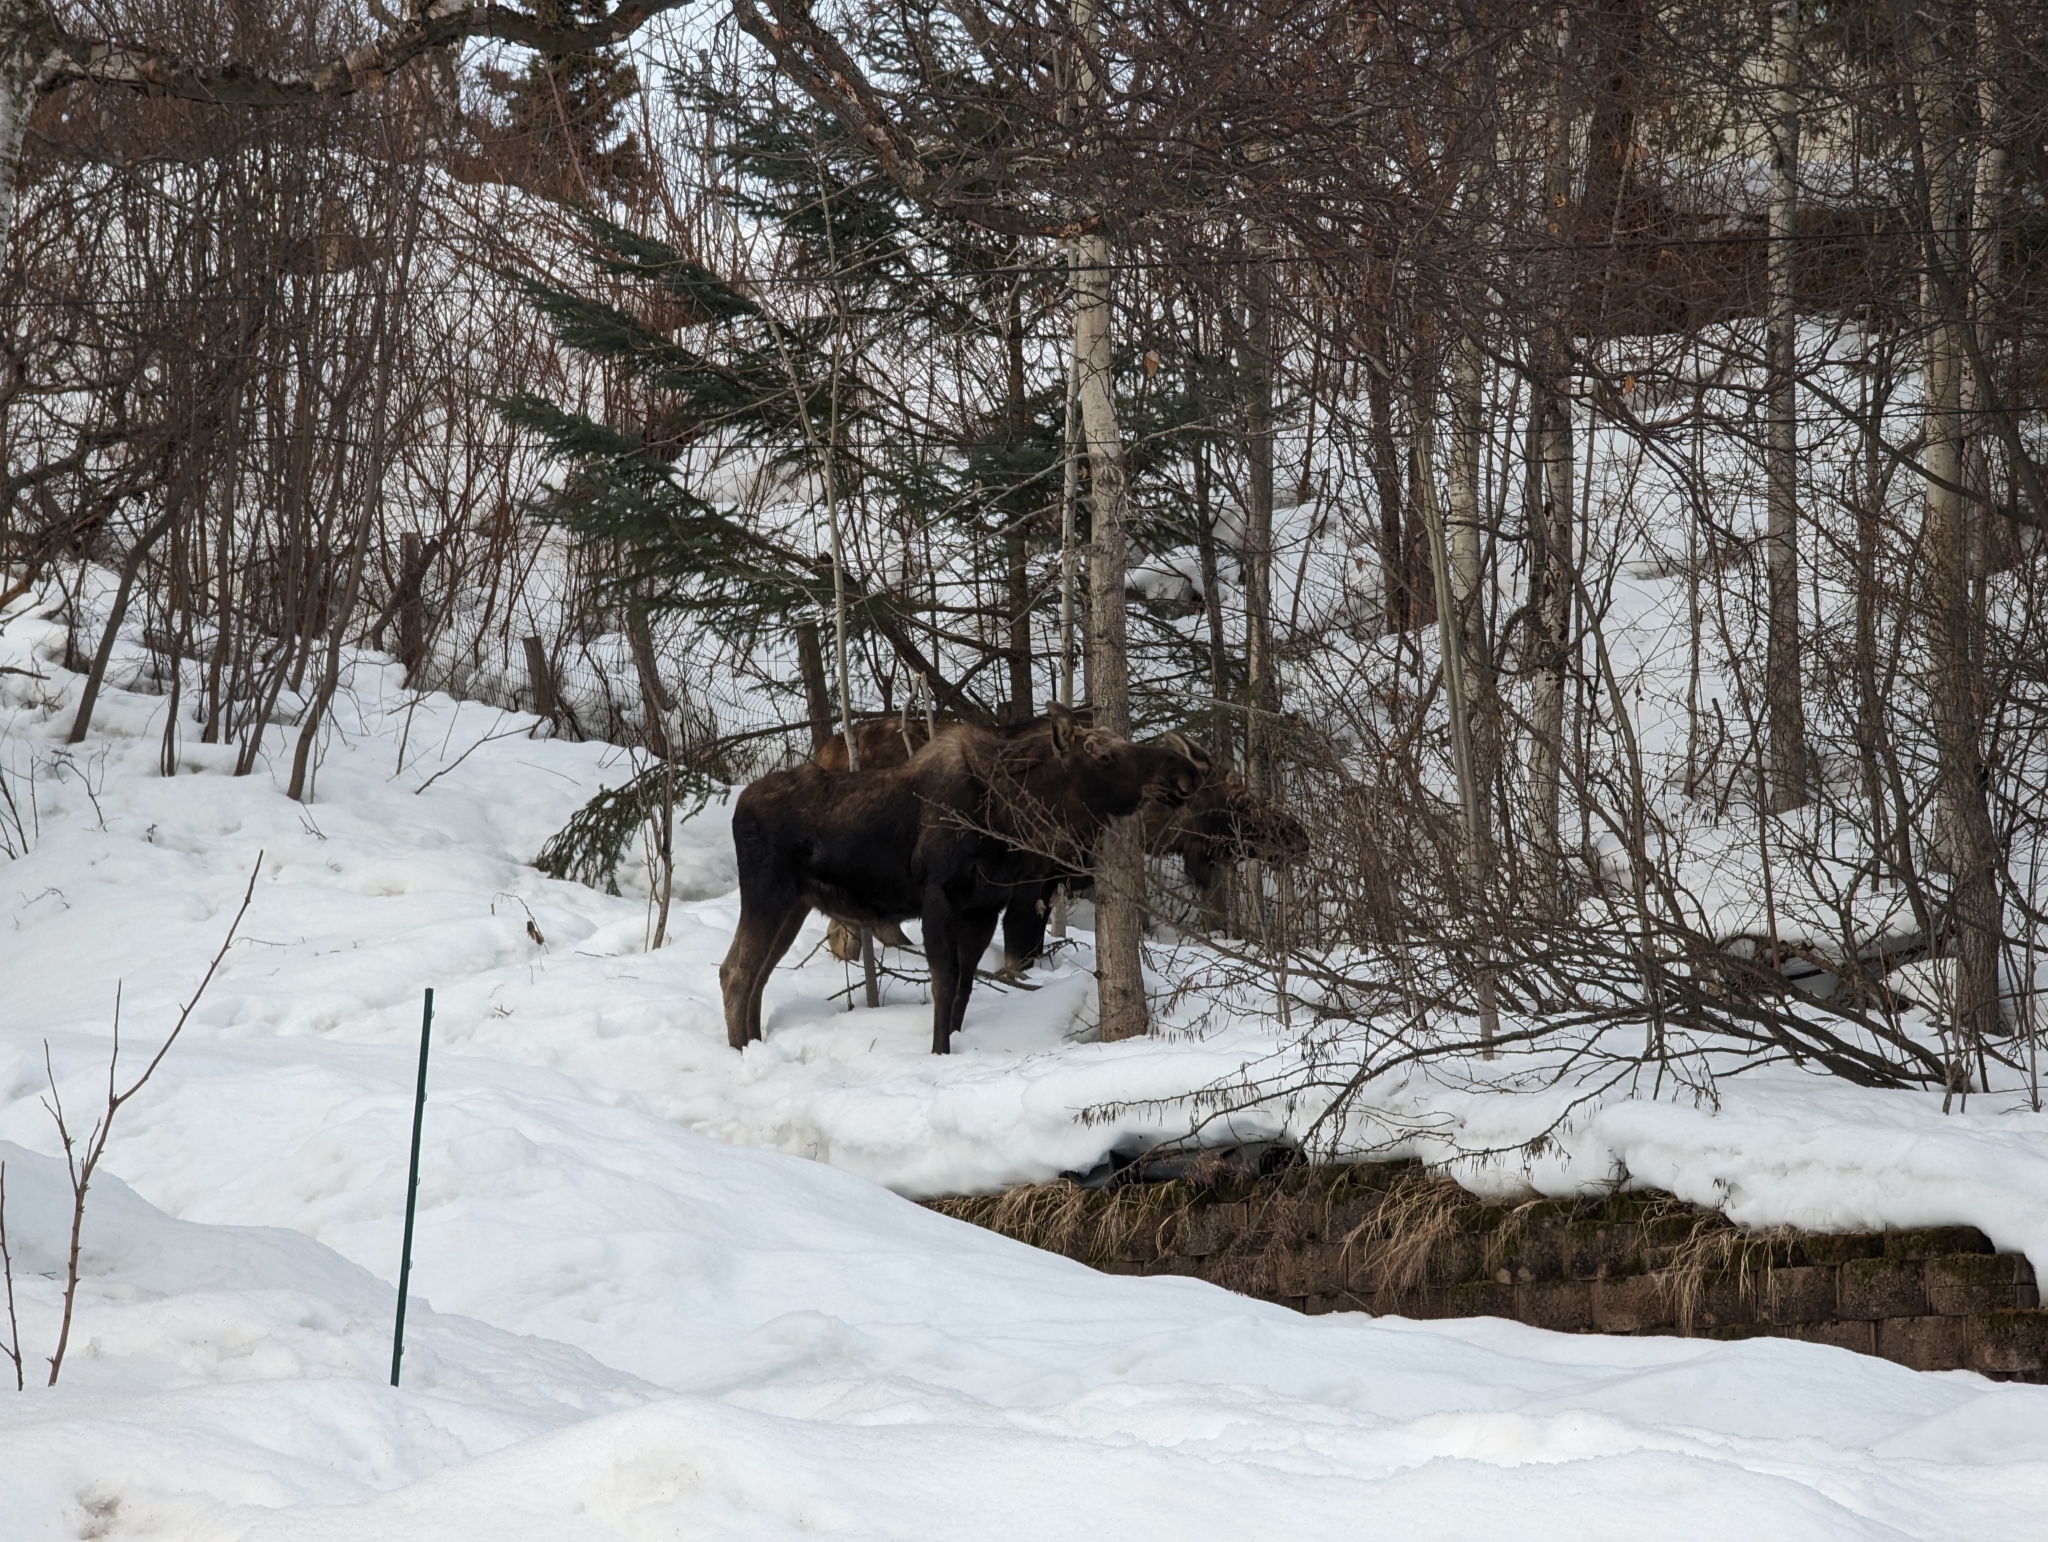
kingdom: Animalia
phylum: Chordata
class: Mammalia
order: Artiodactyla
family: Cervidae
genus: Alces
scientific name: Alces alces
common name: Moose
